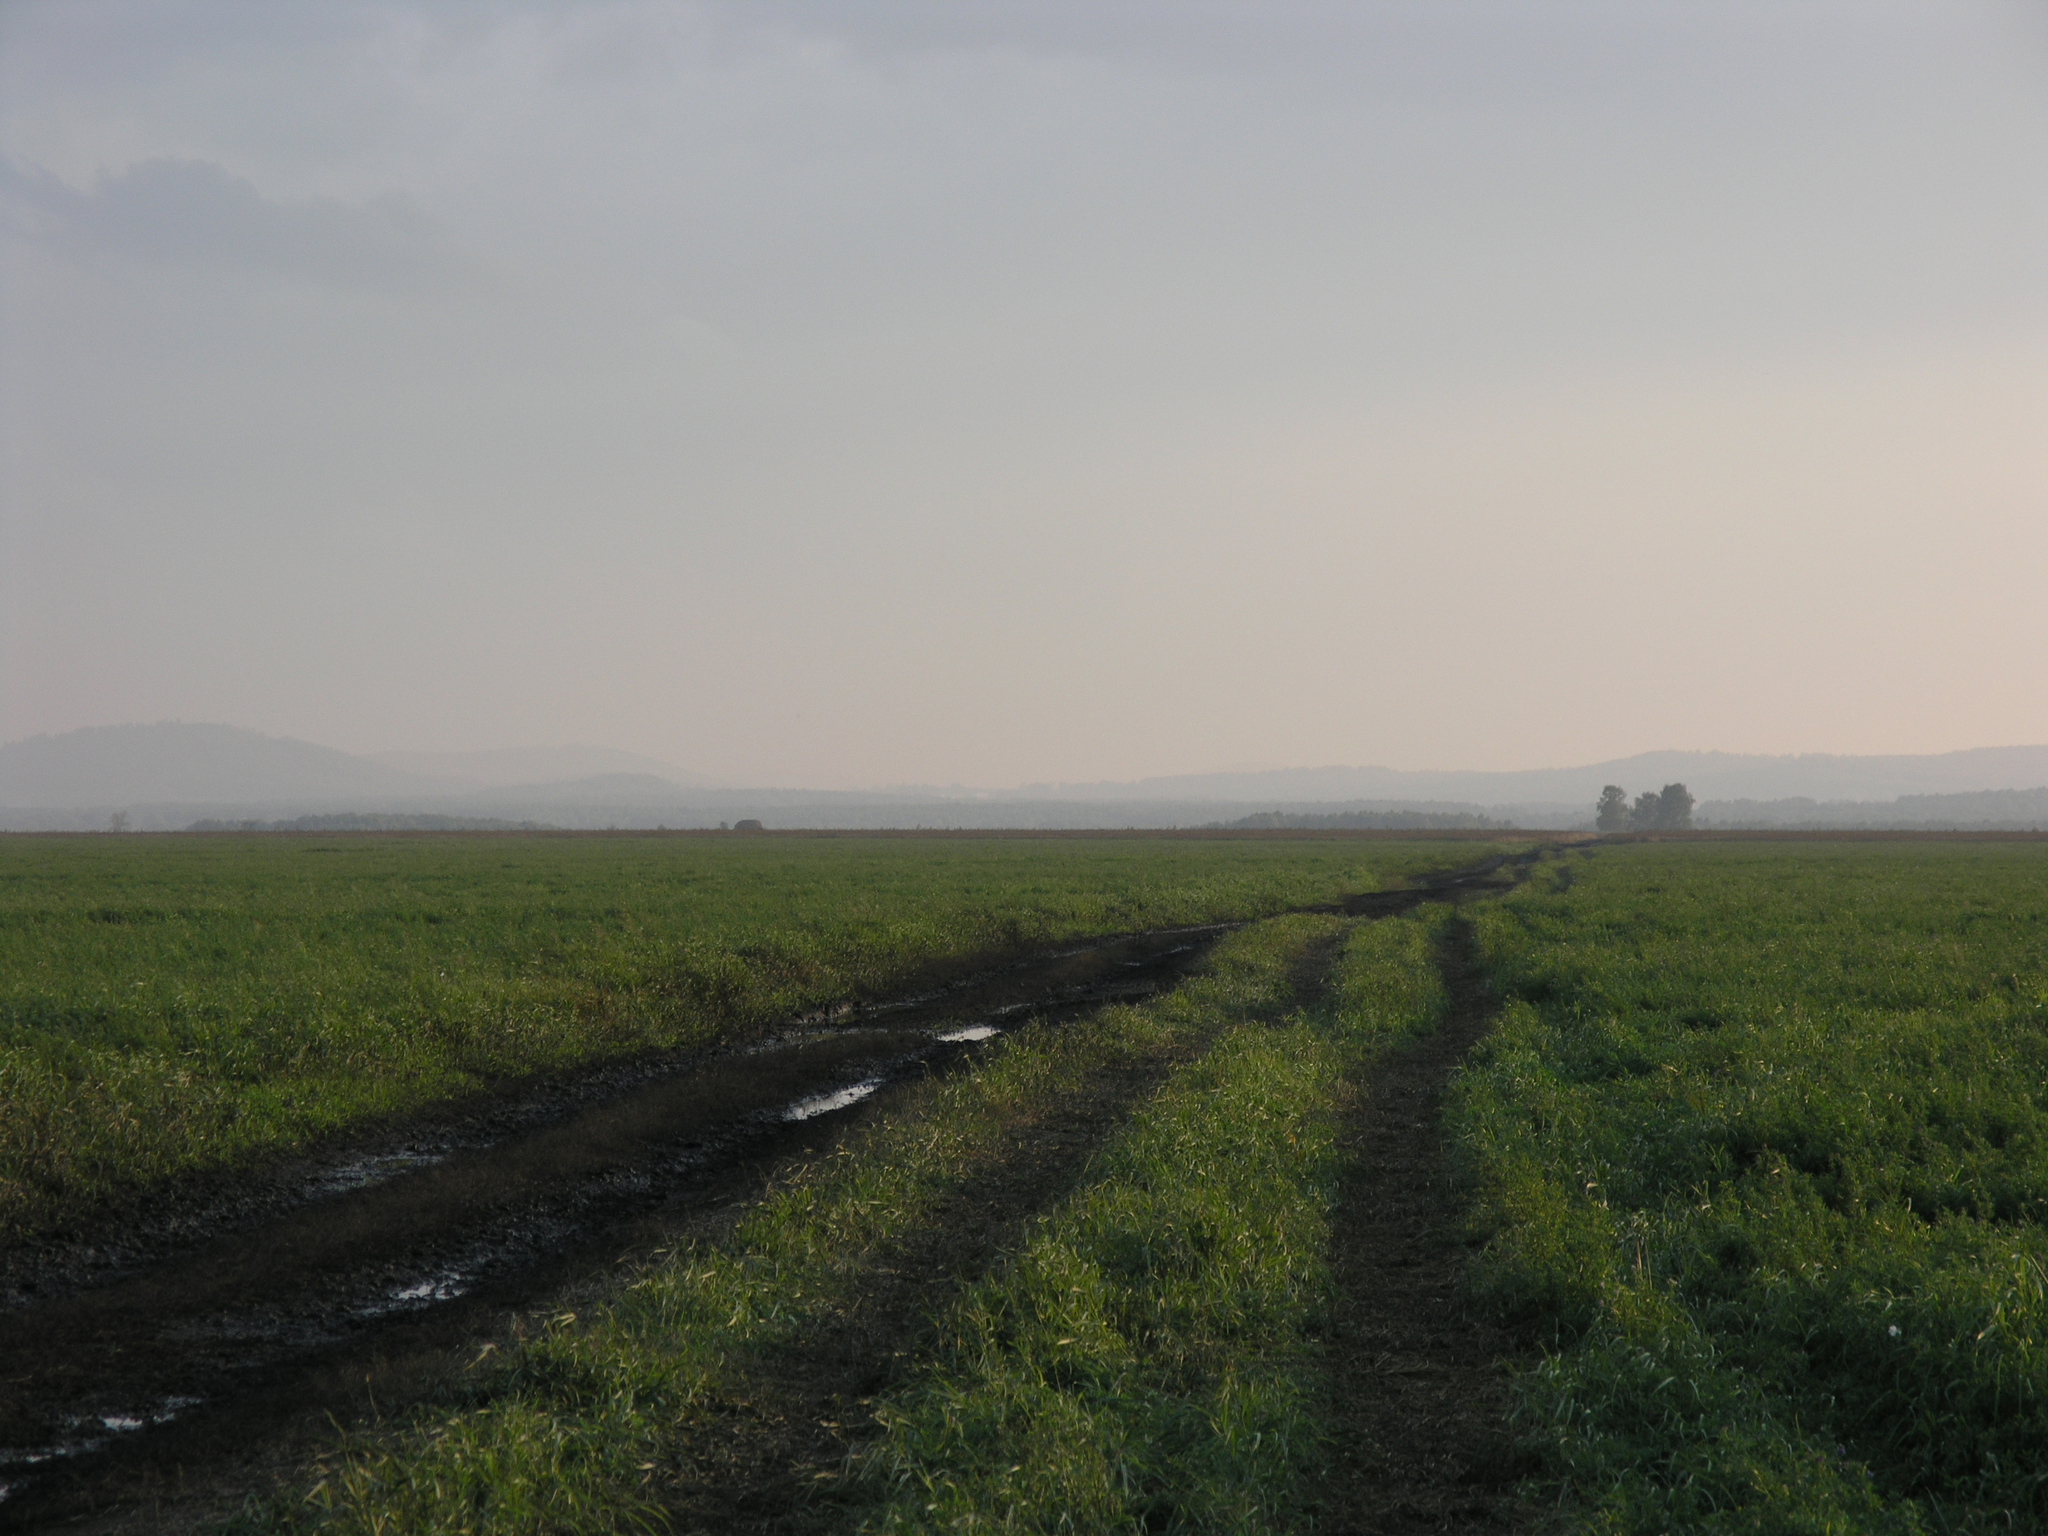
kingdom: Plantae
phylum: Tracheophyta
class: Magnoliopsida
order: Fagales
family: Betulaceae
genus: Betula
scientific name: Betula pendula
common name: Silver birch
